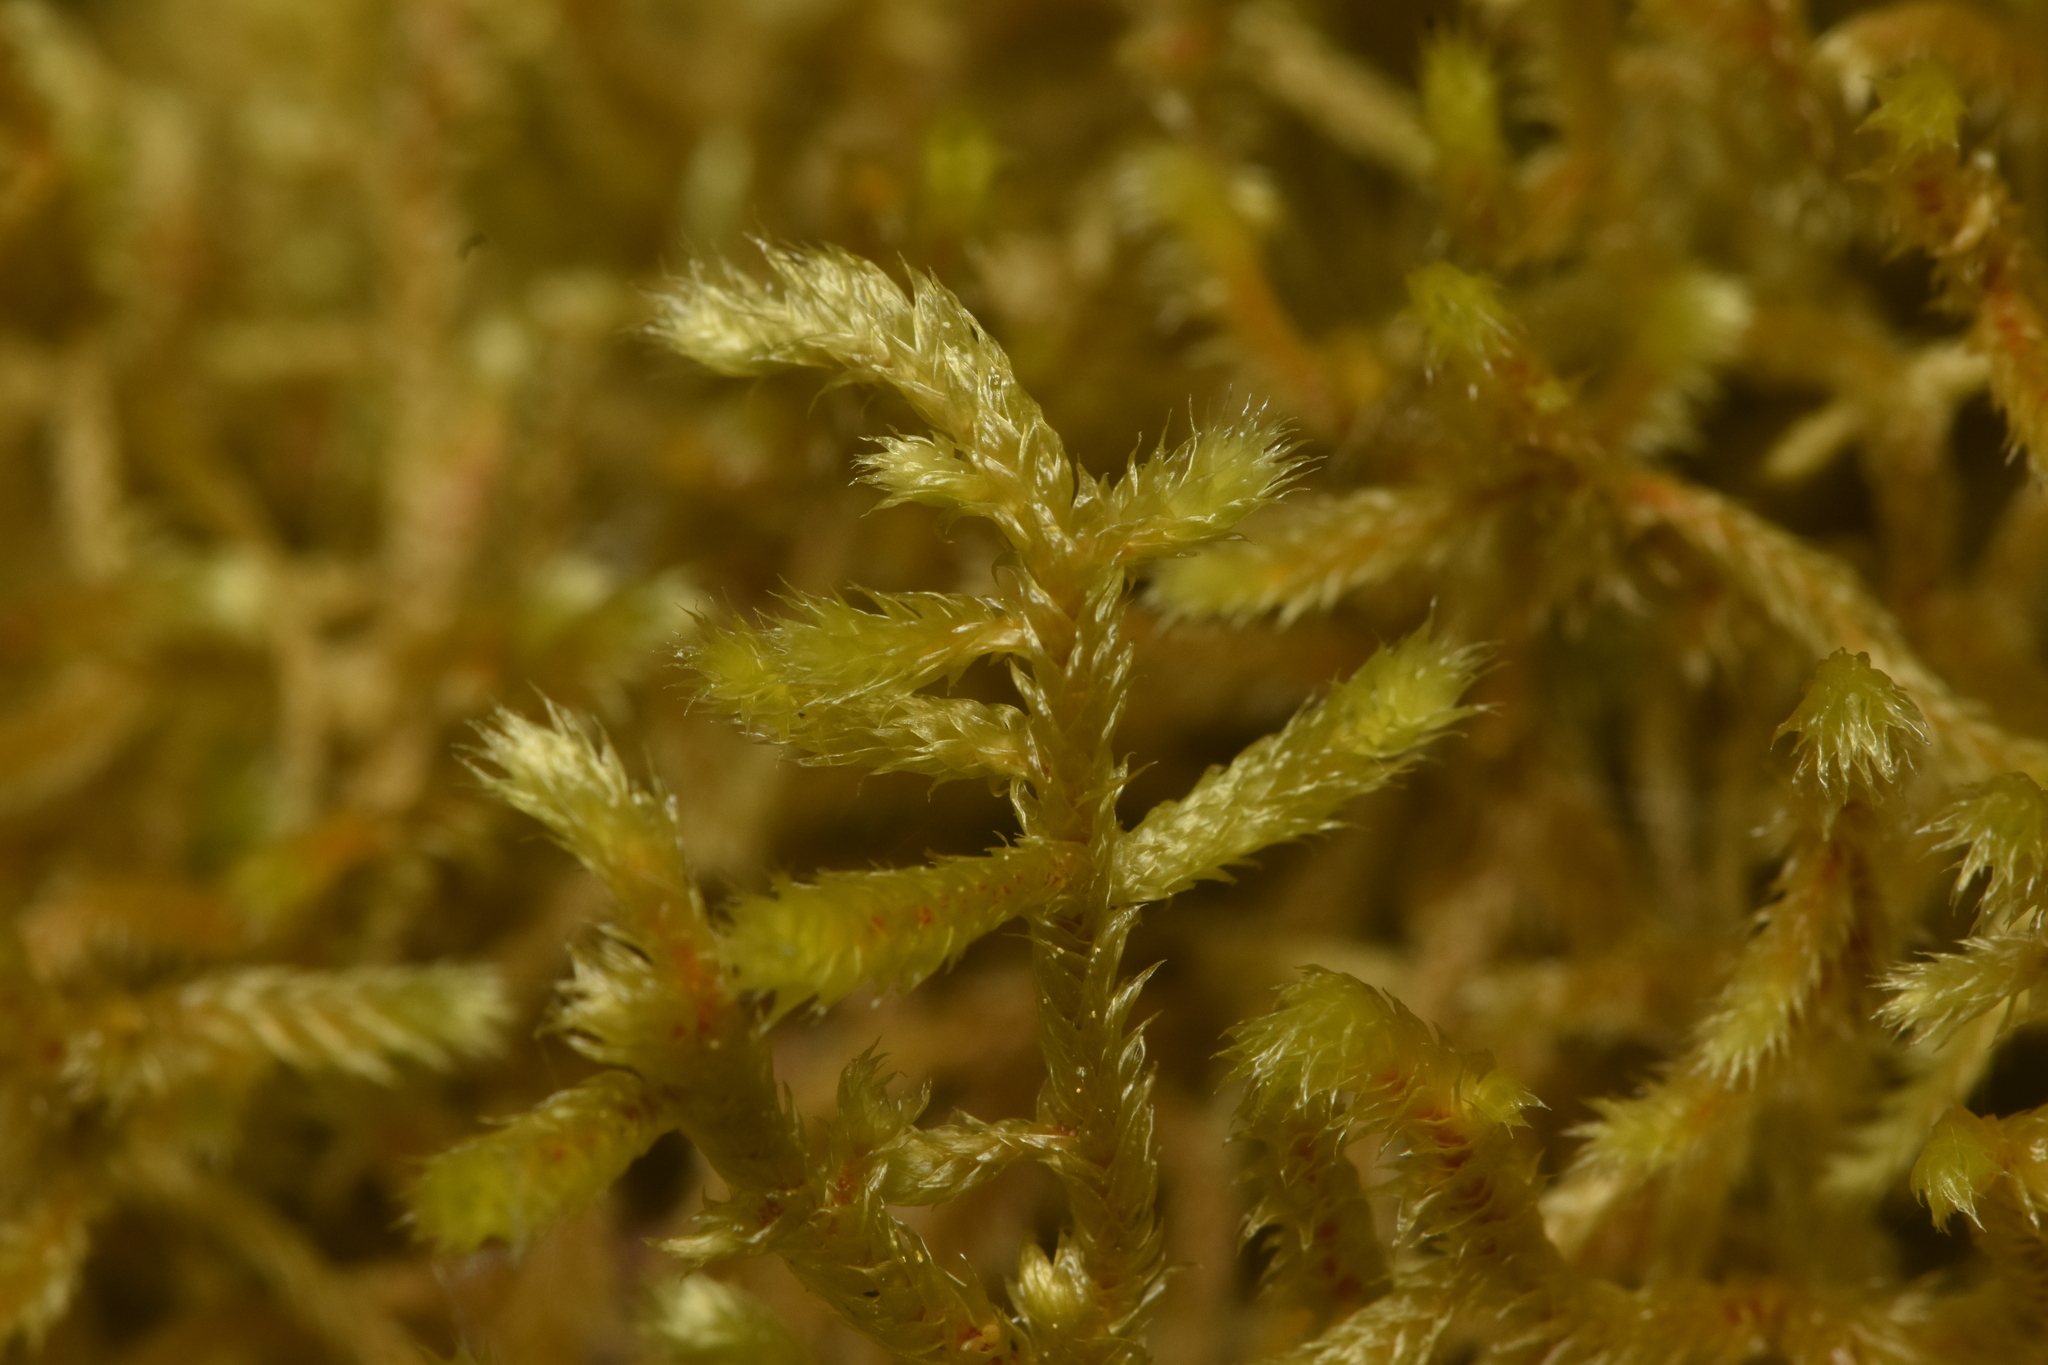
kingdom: Plantae
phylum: Bryophyta
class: Bryopsida
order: Hypnales
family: Antitrichiaceae
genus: Antitrichia
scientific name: Antitrichia curtipendula
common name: Pendulous wing-moss
